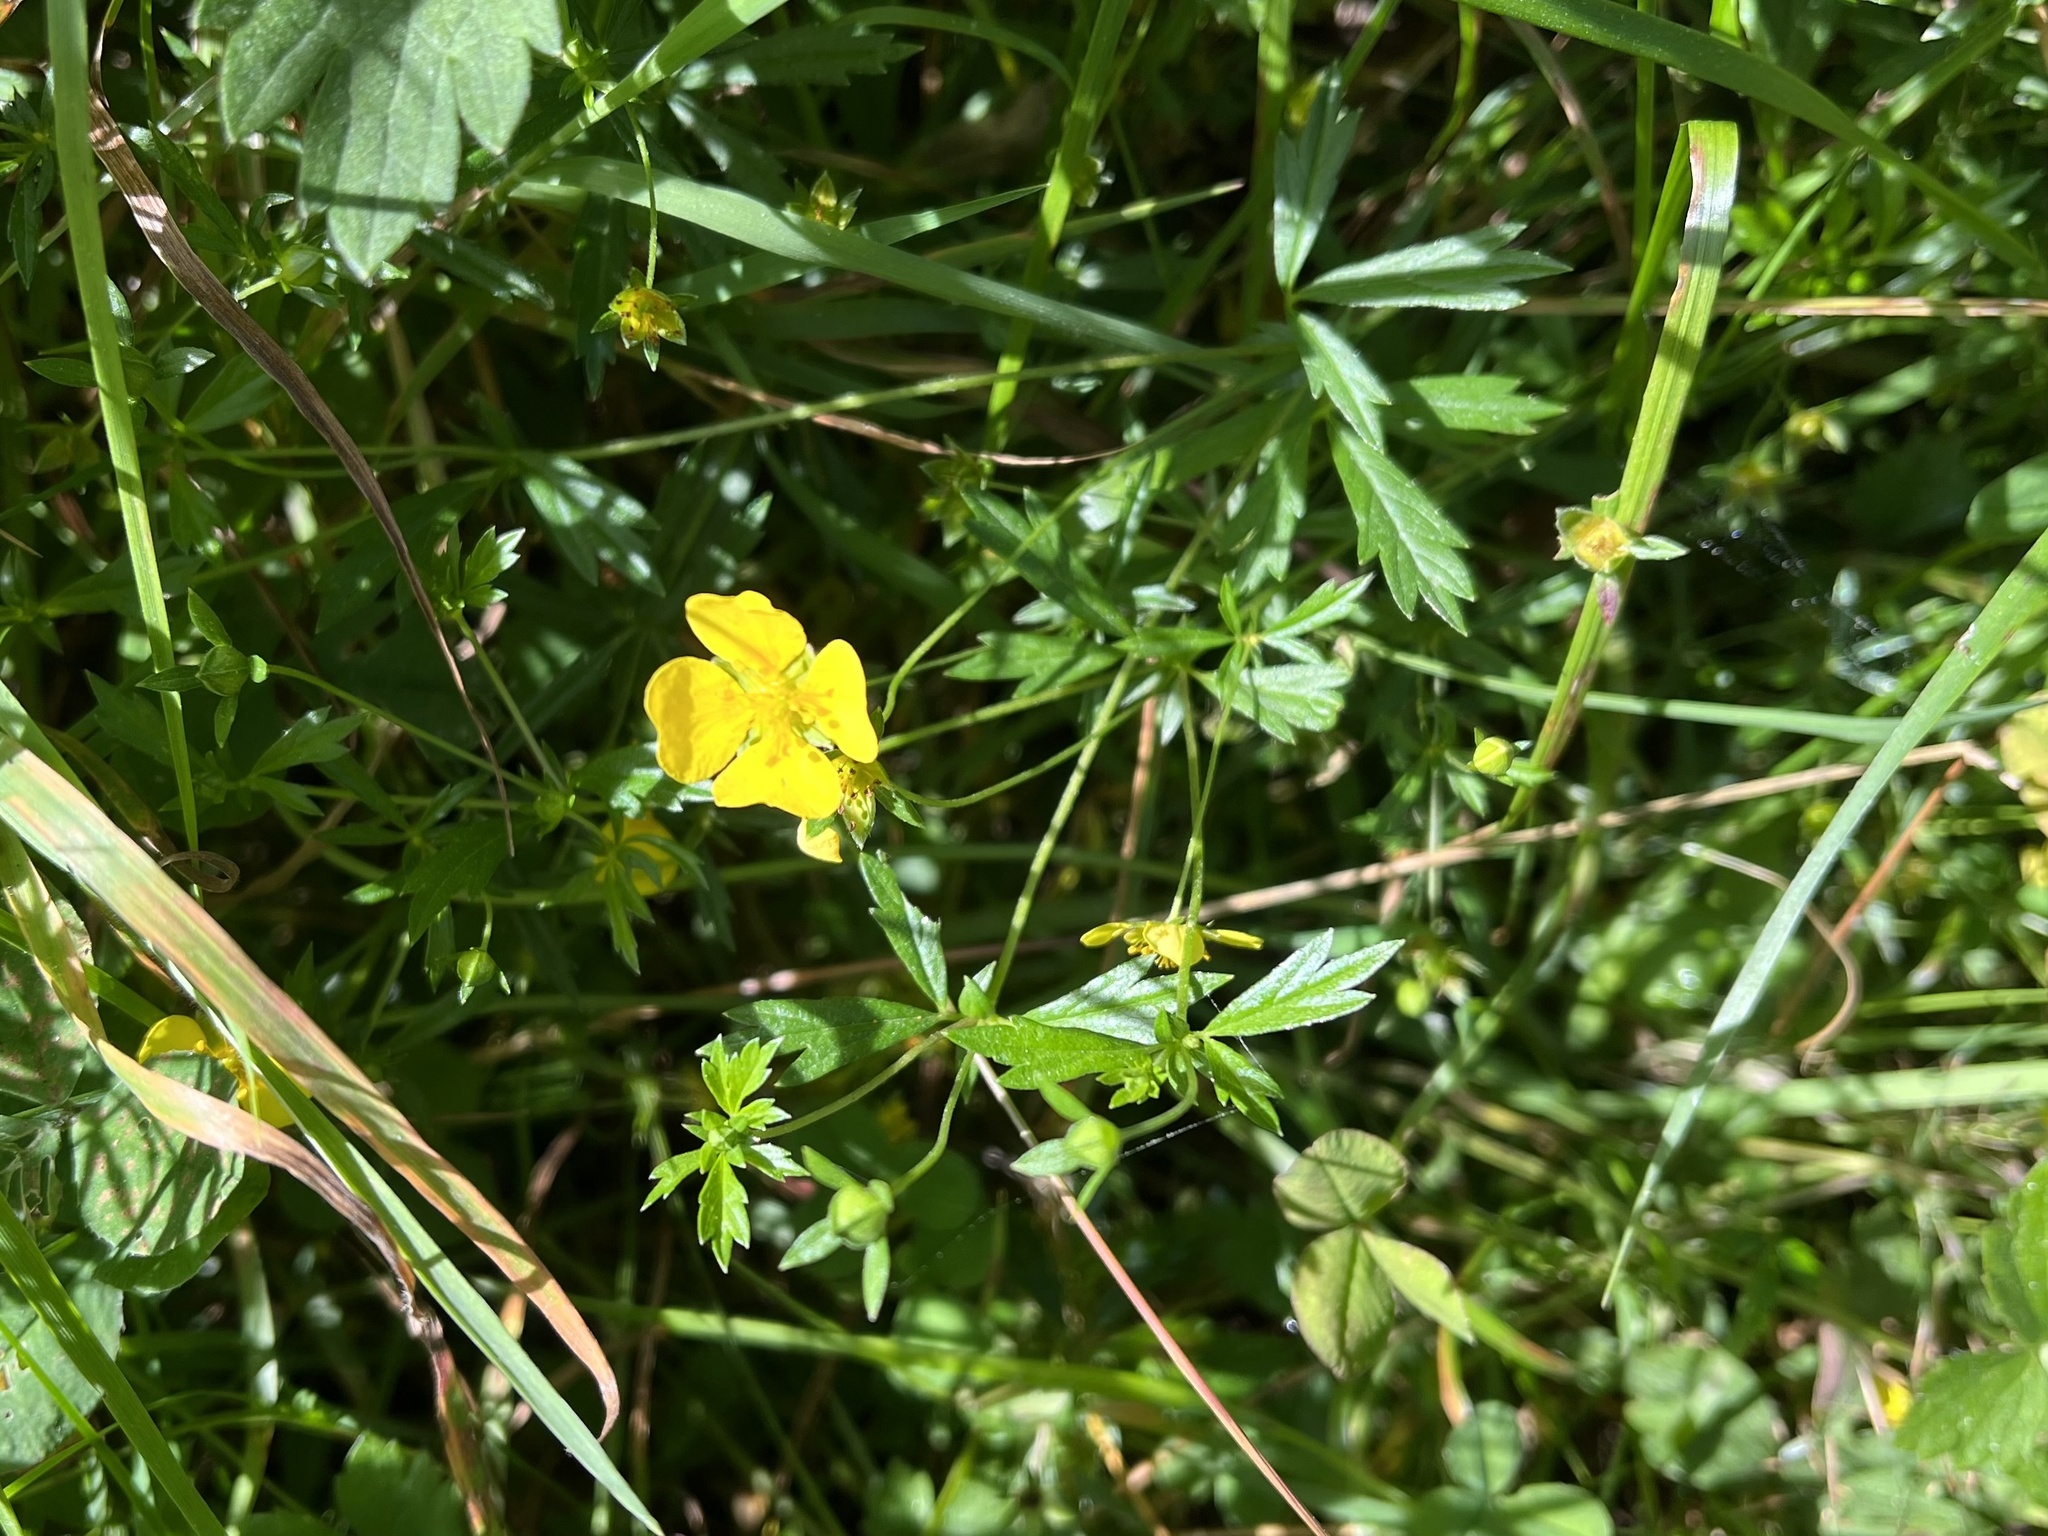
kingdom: Plantae
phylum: Tracheophyta
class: Magnoliopsida
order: Rosales
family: Rosaceae
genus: Potentilla
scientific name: Potentilla erecta
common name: Tormentil
